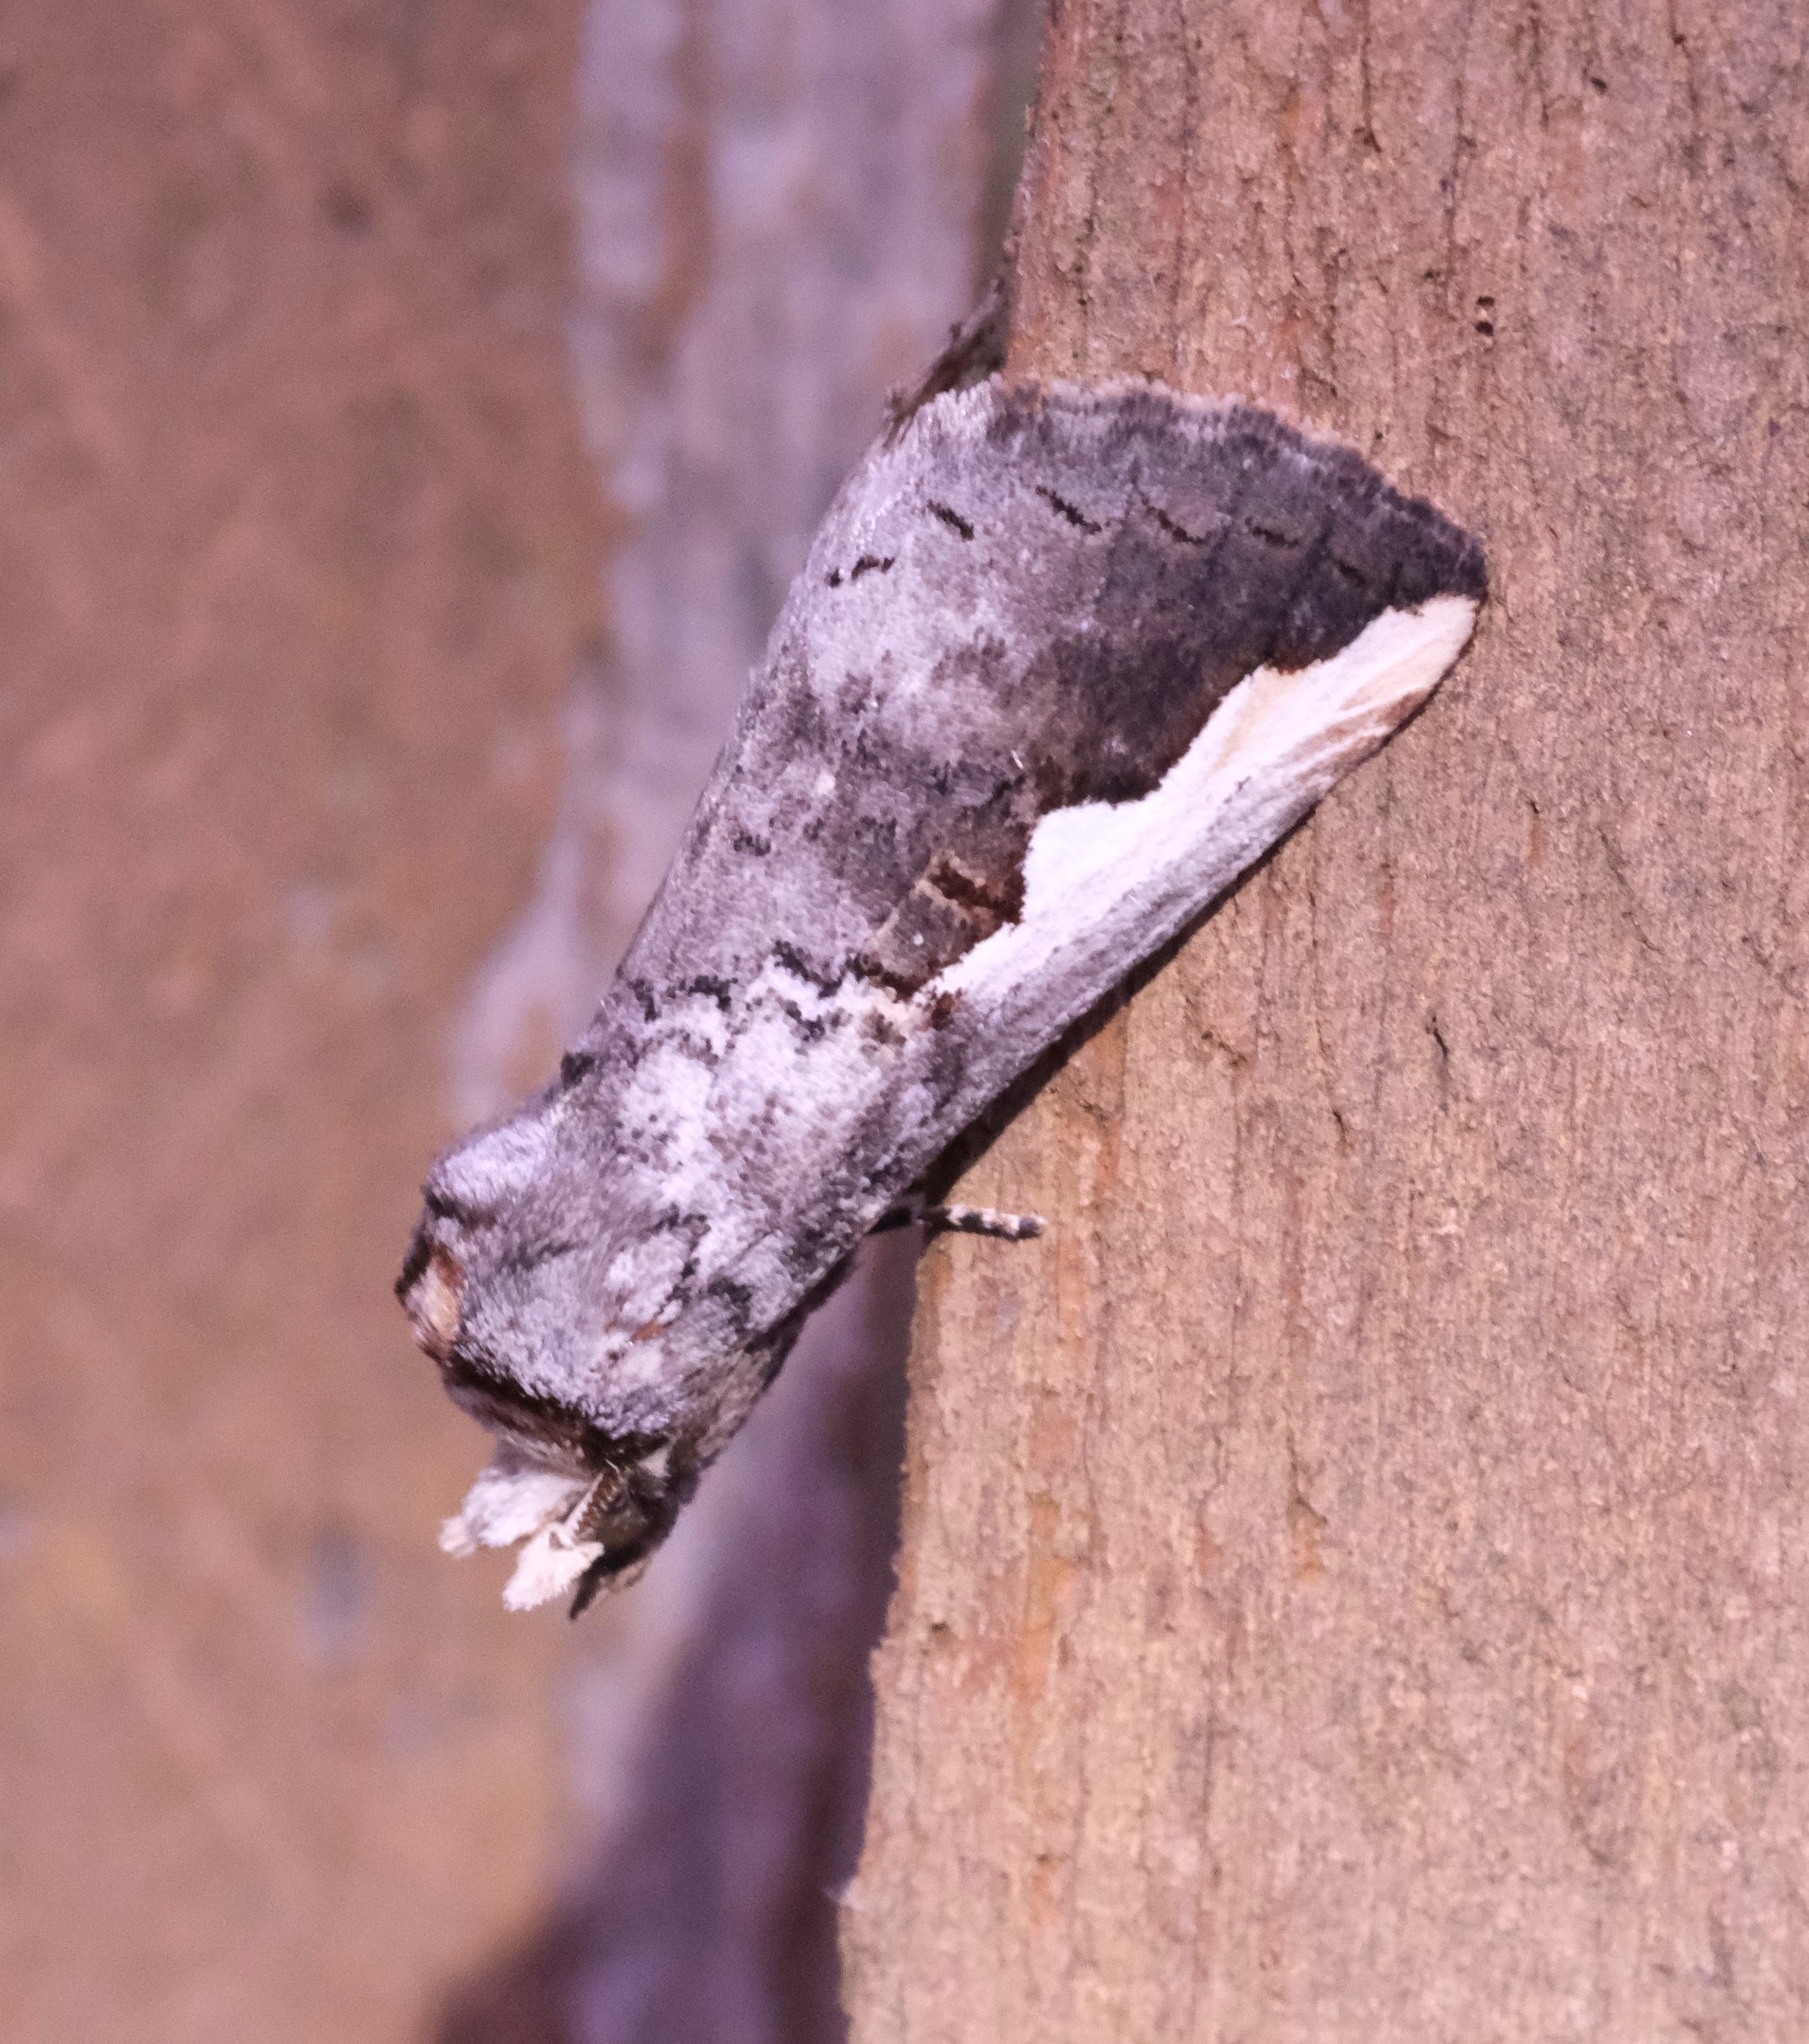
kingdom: Animalia
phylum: Arthropoda
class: Insecta
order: Lepidoptera
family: Notodontidae
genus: Symmerista
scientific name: Symmerista albifrons
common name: White-headed prominent
